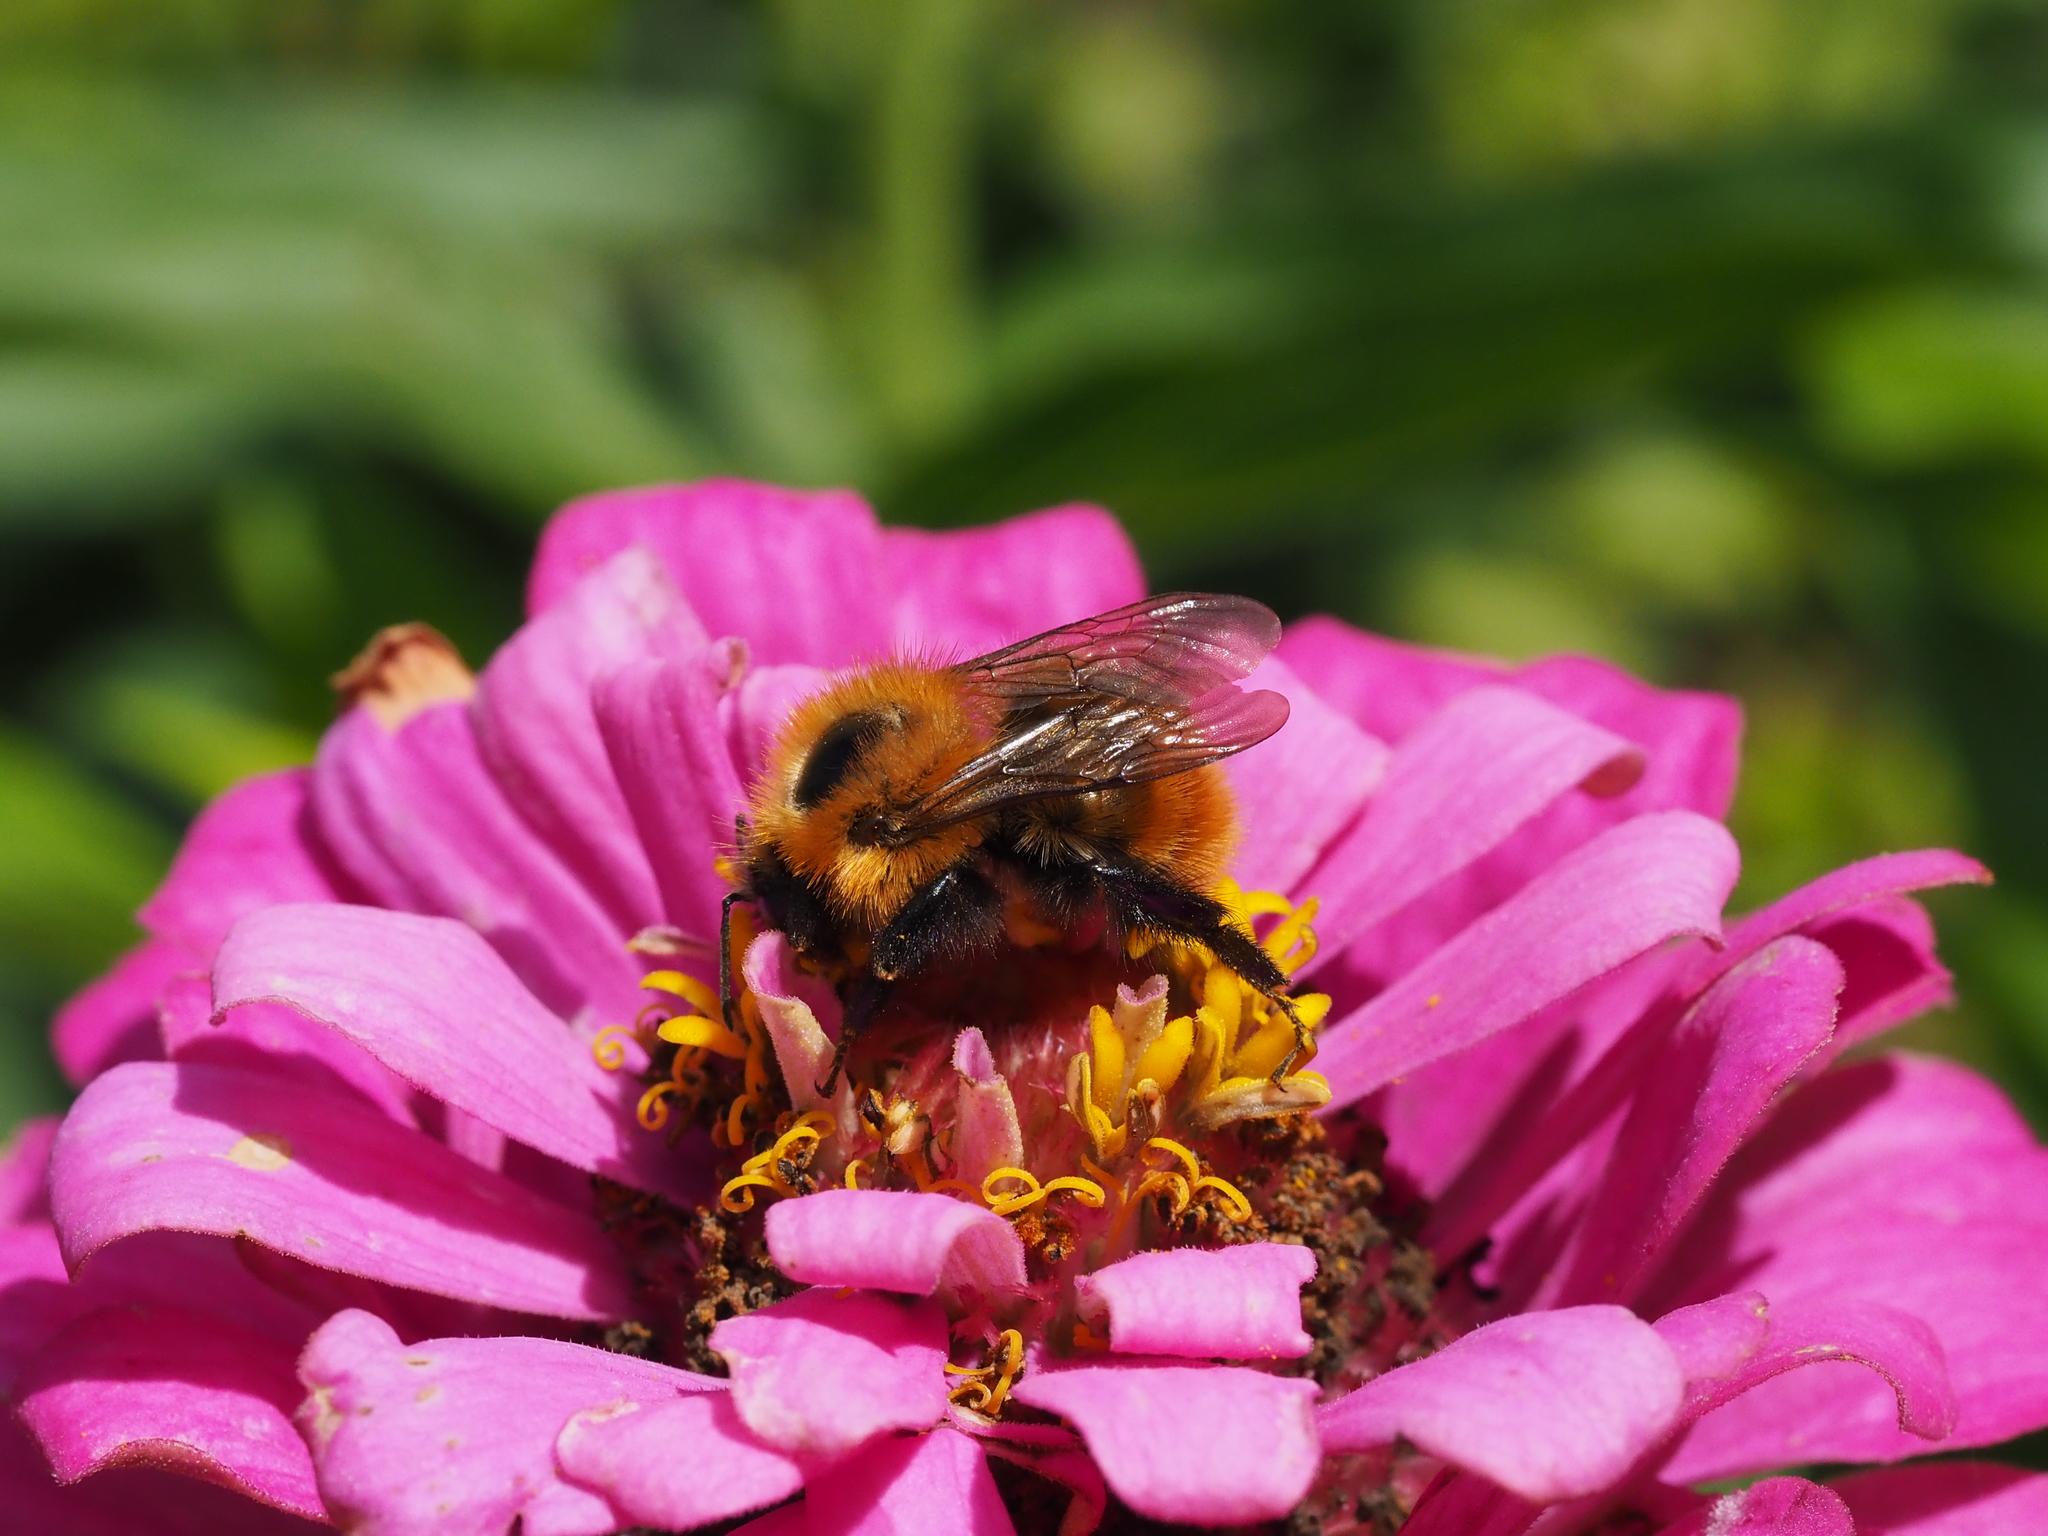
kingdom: Animalia
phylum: Arthropoda
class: Insecta
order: Hymenoptera
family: Apidae
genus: Bombus
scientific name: Bombus pascuorum
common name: Common carder bee
